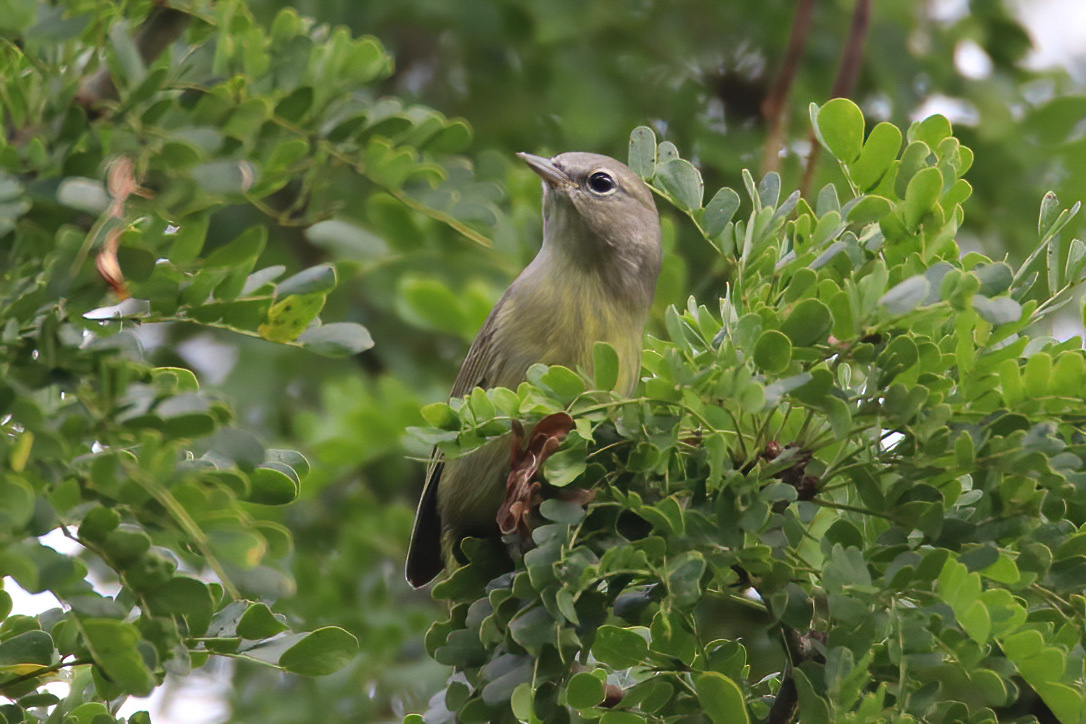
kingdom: Animalia
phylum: Chordata
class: Aves
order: Passeriformes
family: Parulidae
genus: Leiothlypis
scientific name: Leiothlypis celata
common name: Orange-crowned warbler
